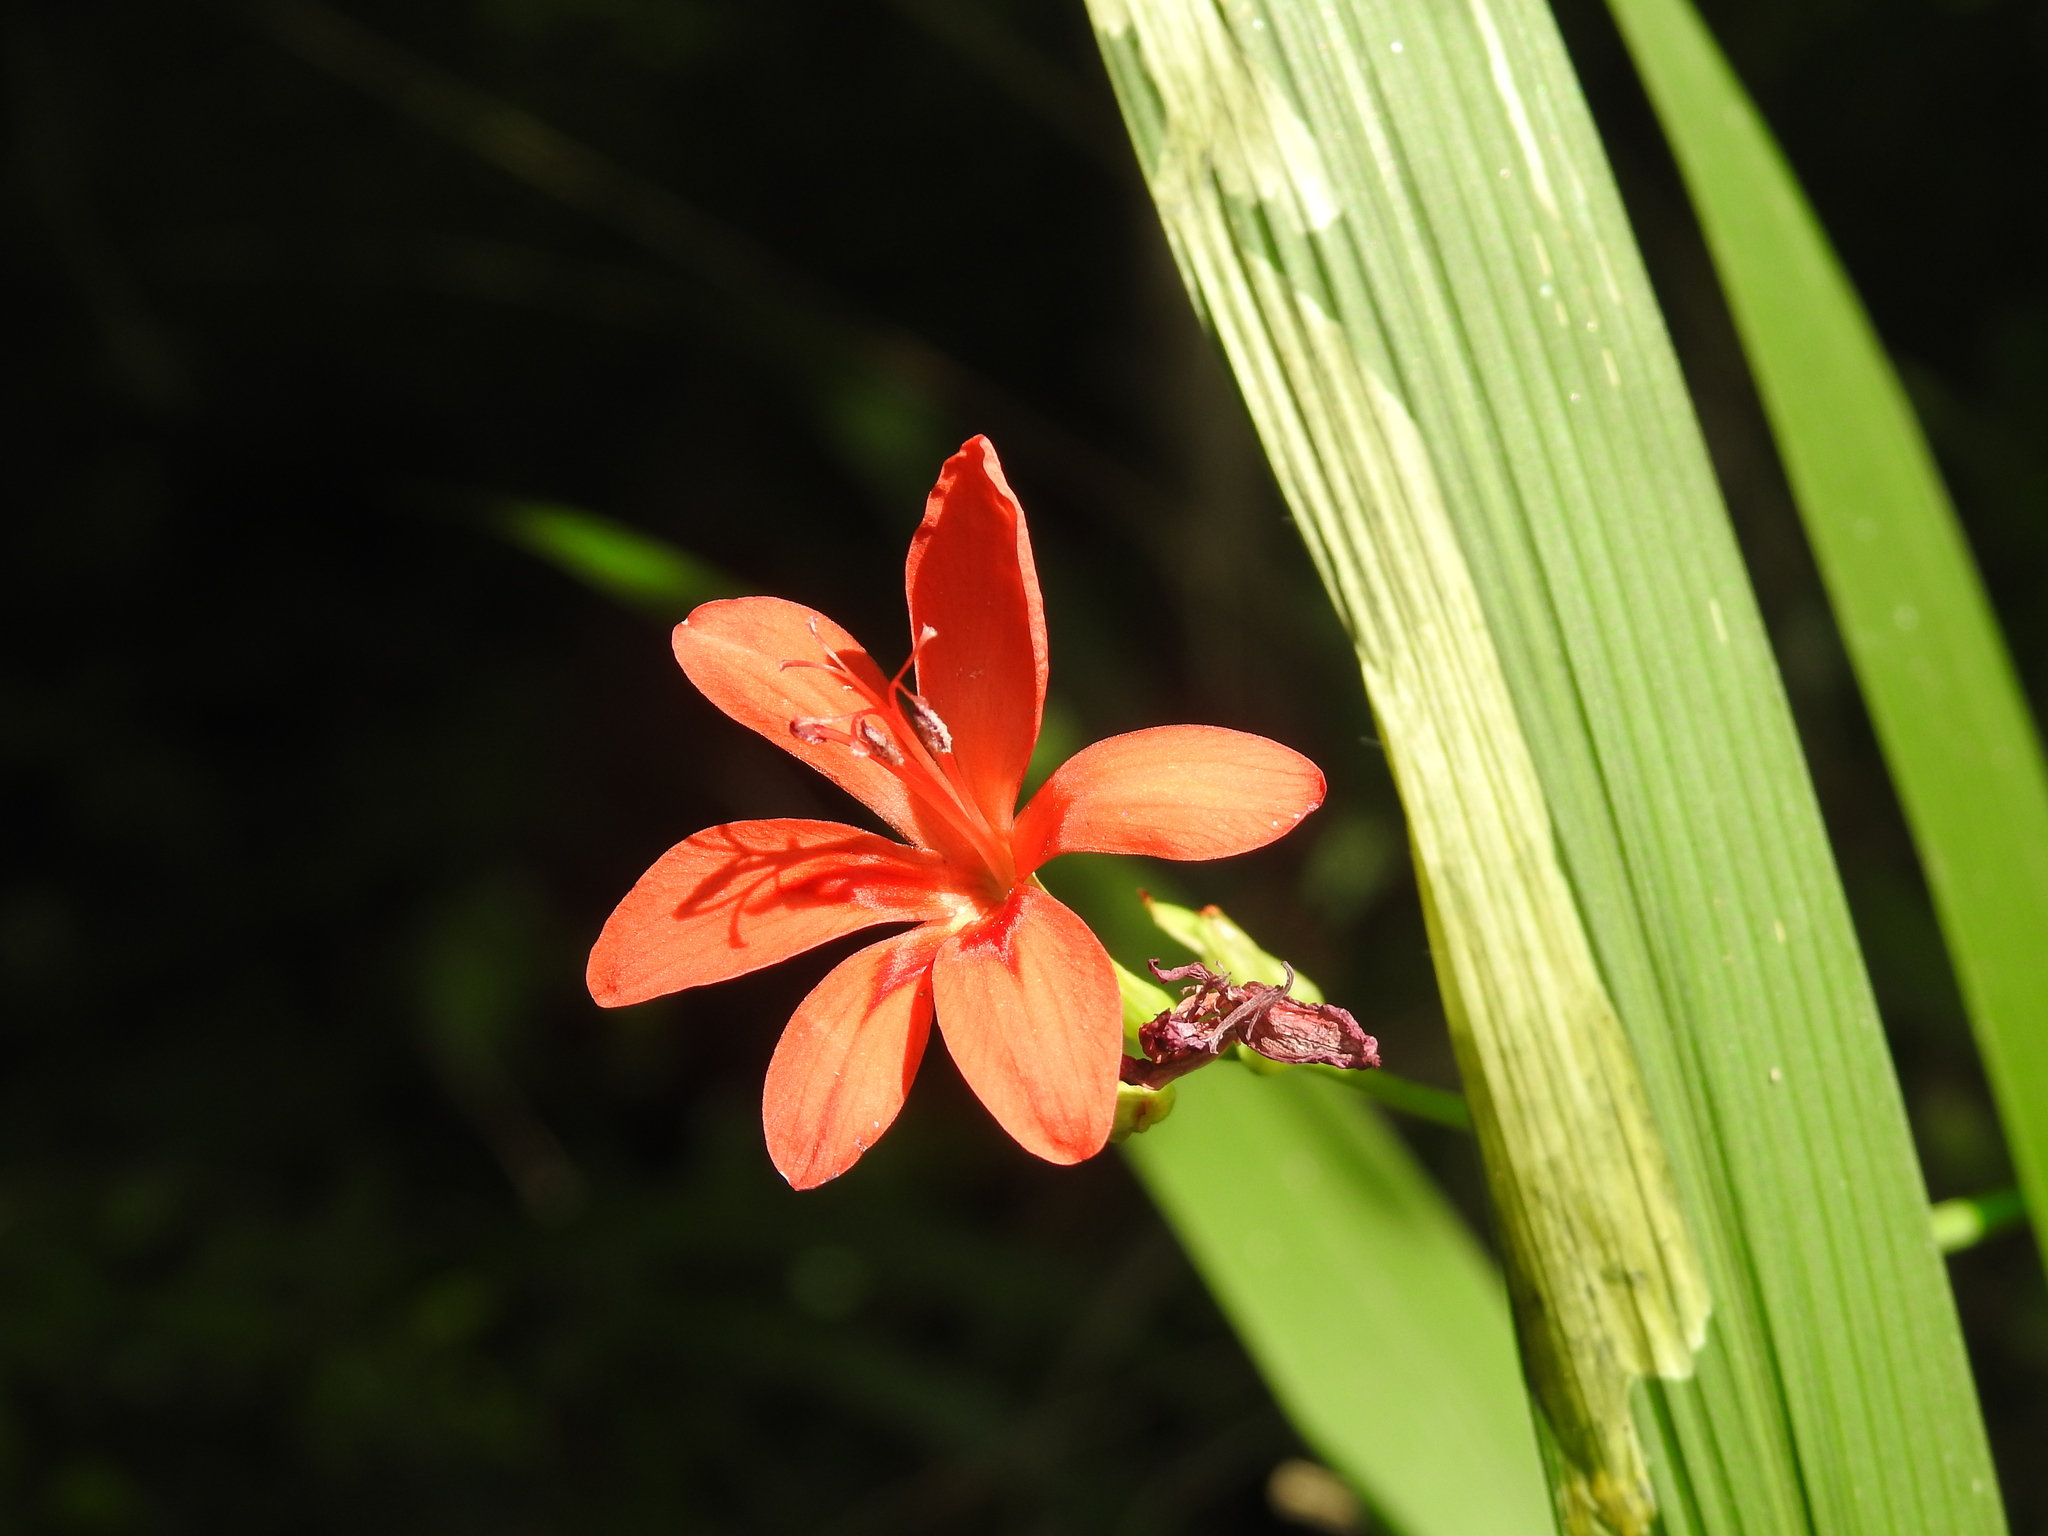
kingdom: Plantae
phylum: Tracheophyta
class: Liliopsida
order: Asparagales
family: Iridaceae
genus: Freesia
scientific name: Freesia grandiflora
